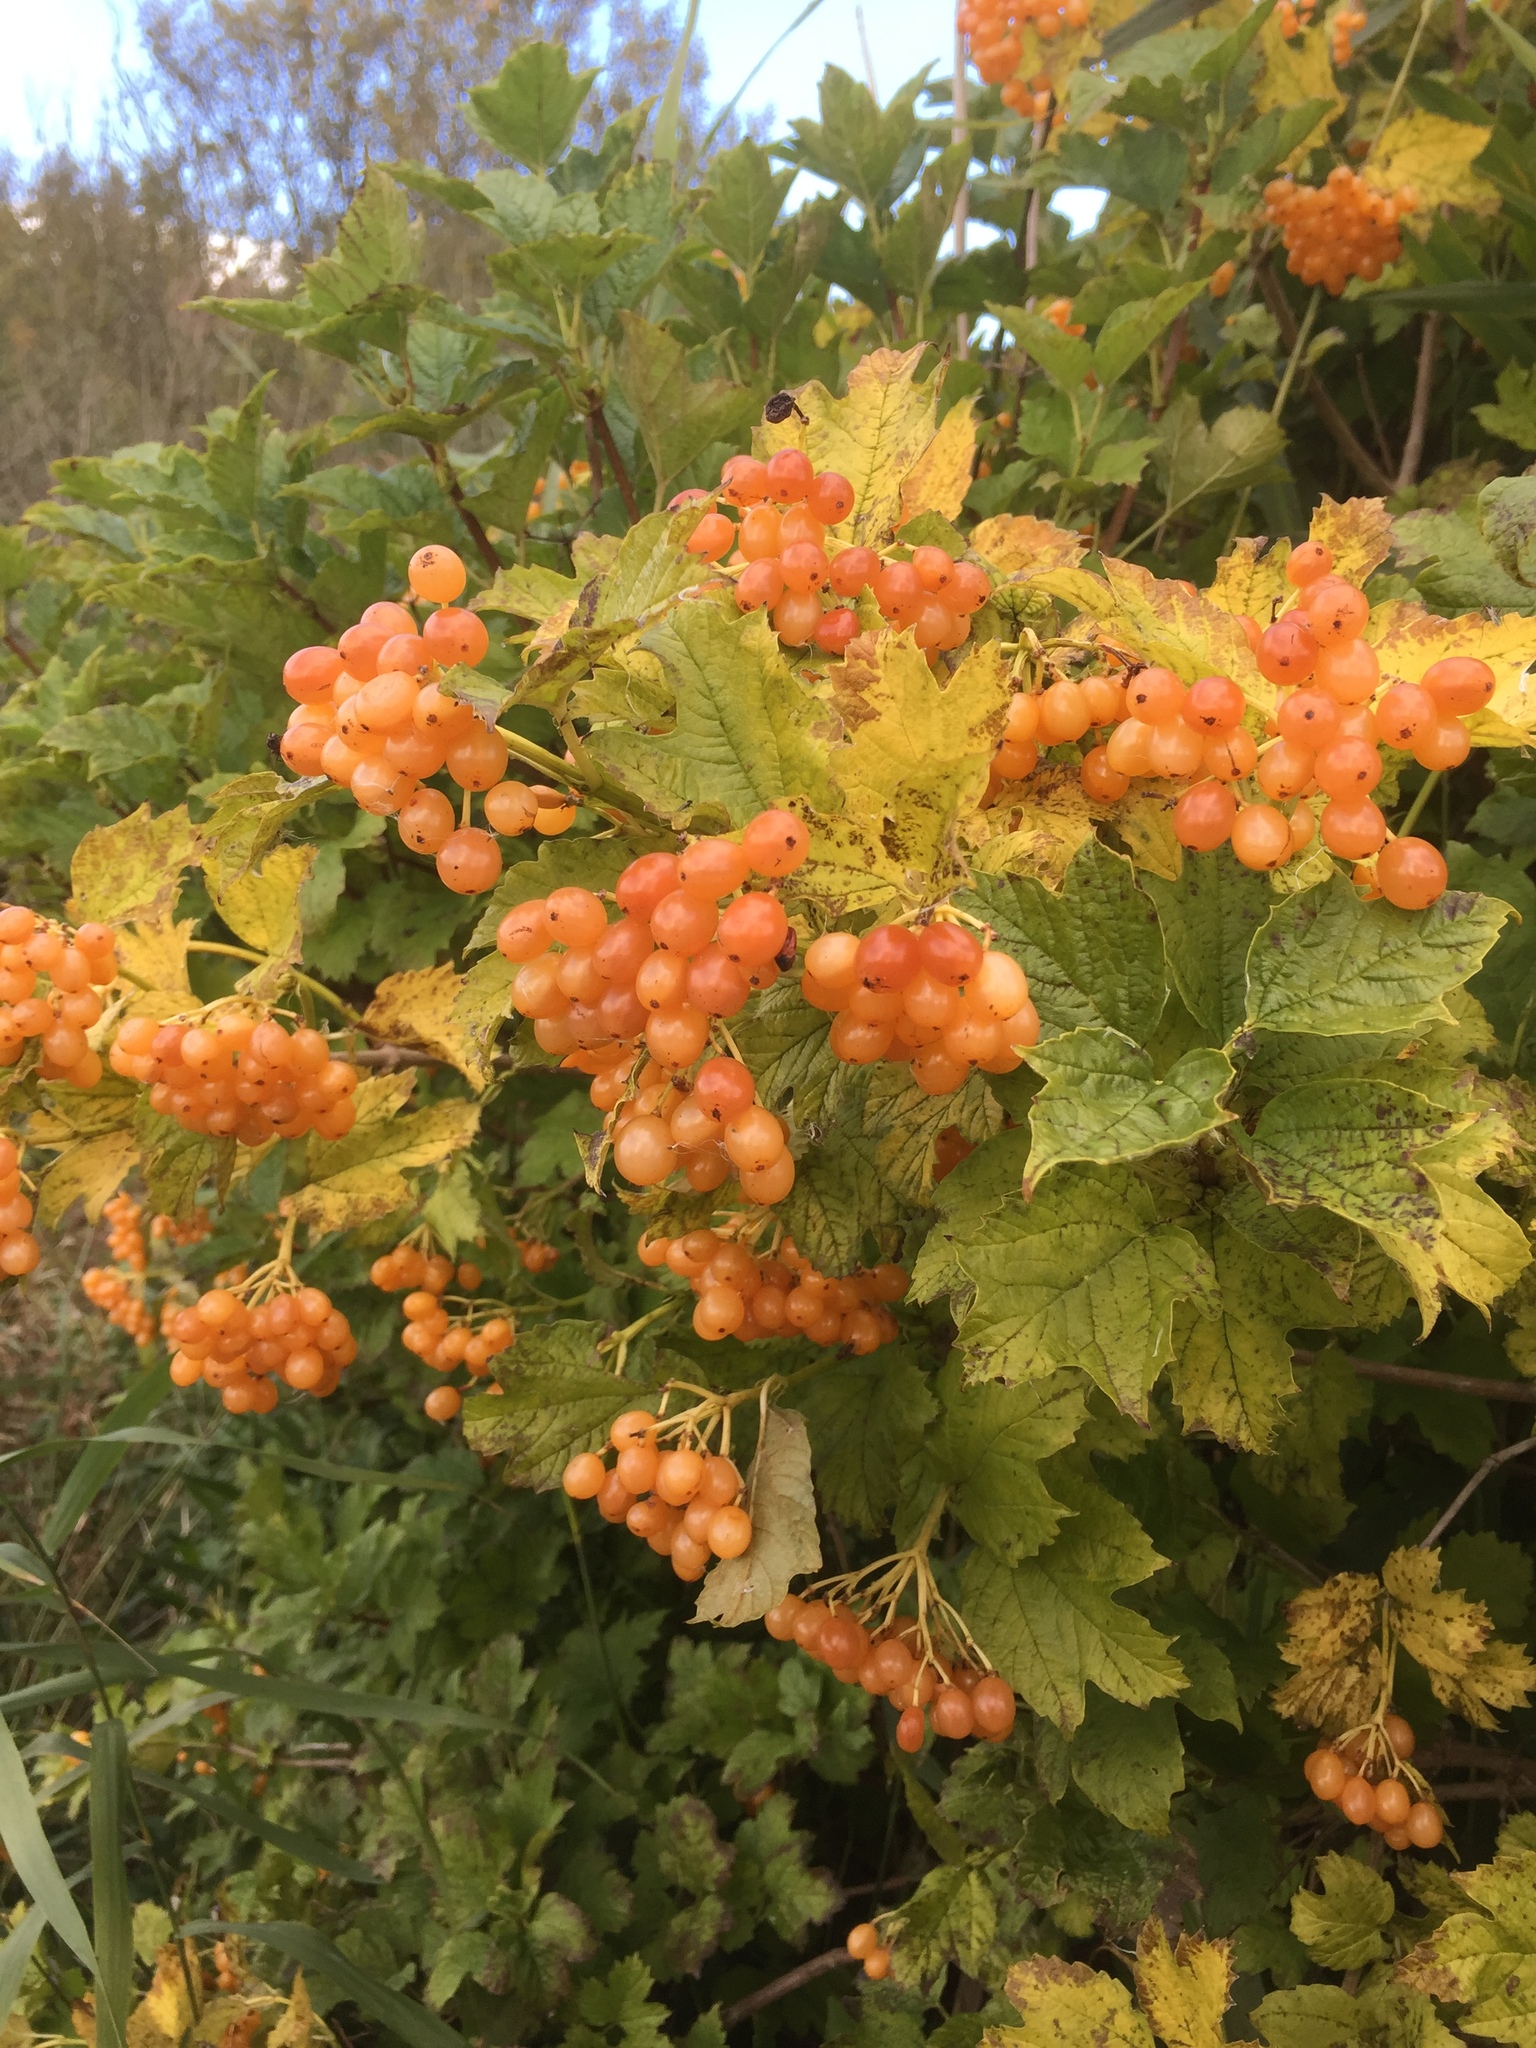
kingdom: Plantae
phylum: Tracheophyta
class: Magnoliopsida
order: Dipsacales
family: Viburnaceae
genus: Viburnum
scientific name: Viburnum opulus
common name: Guelder-rose
